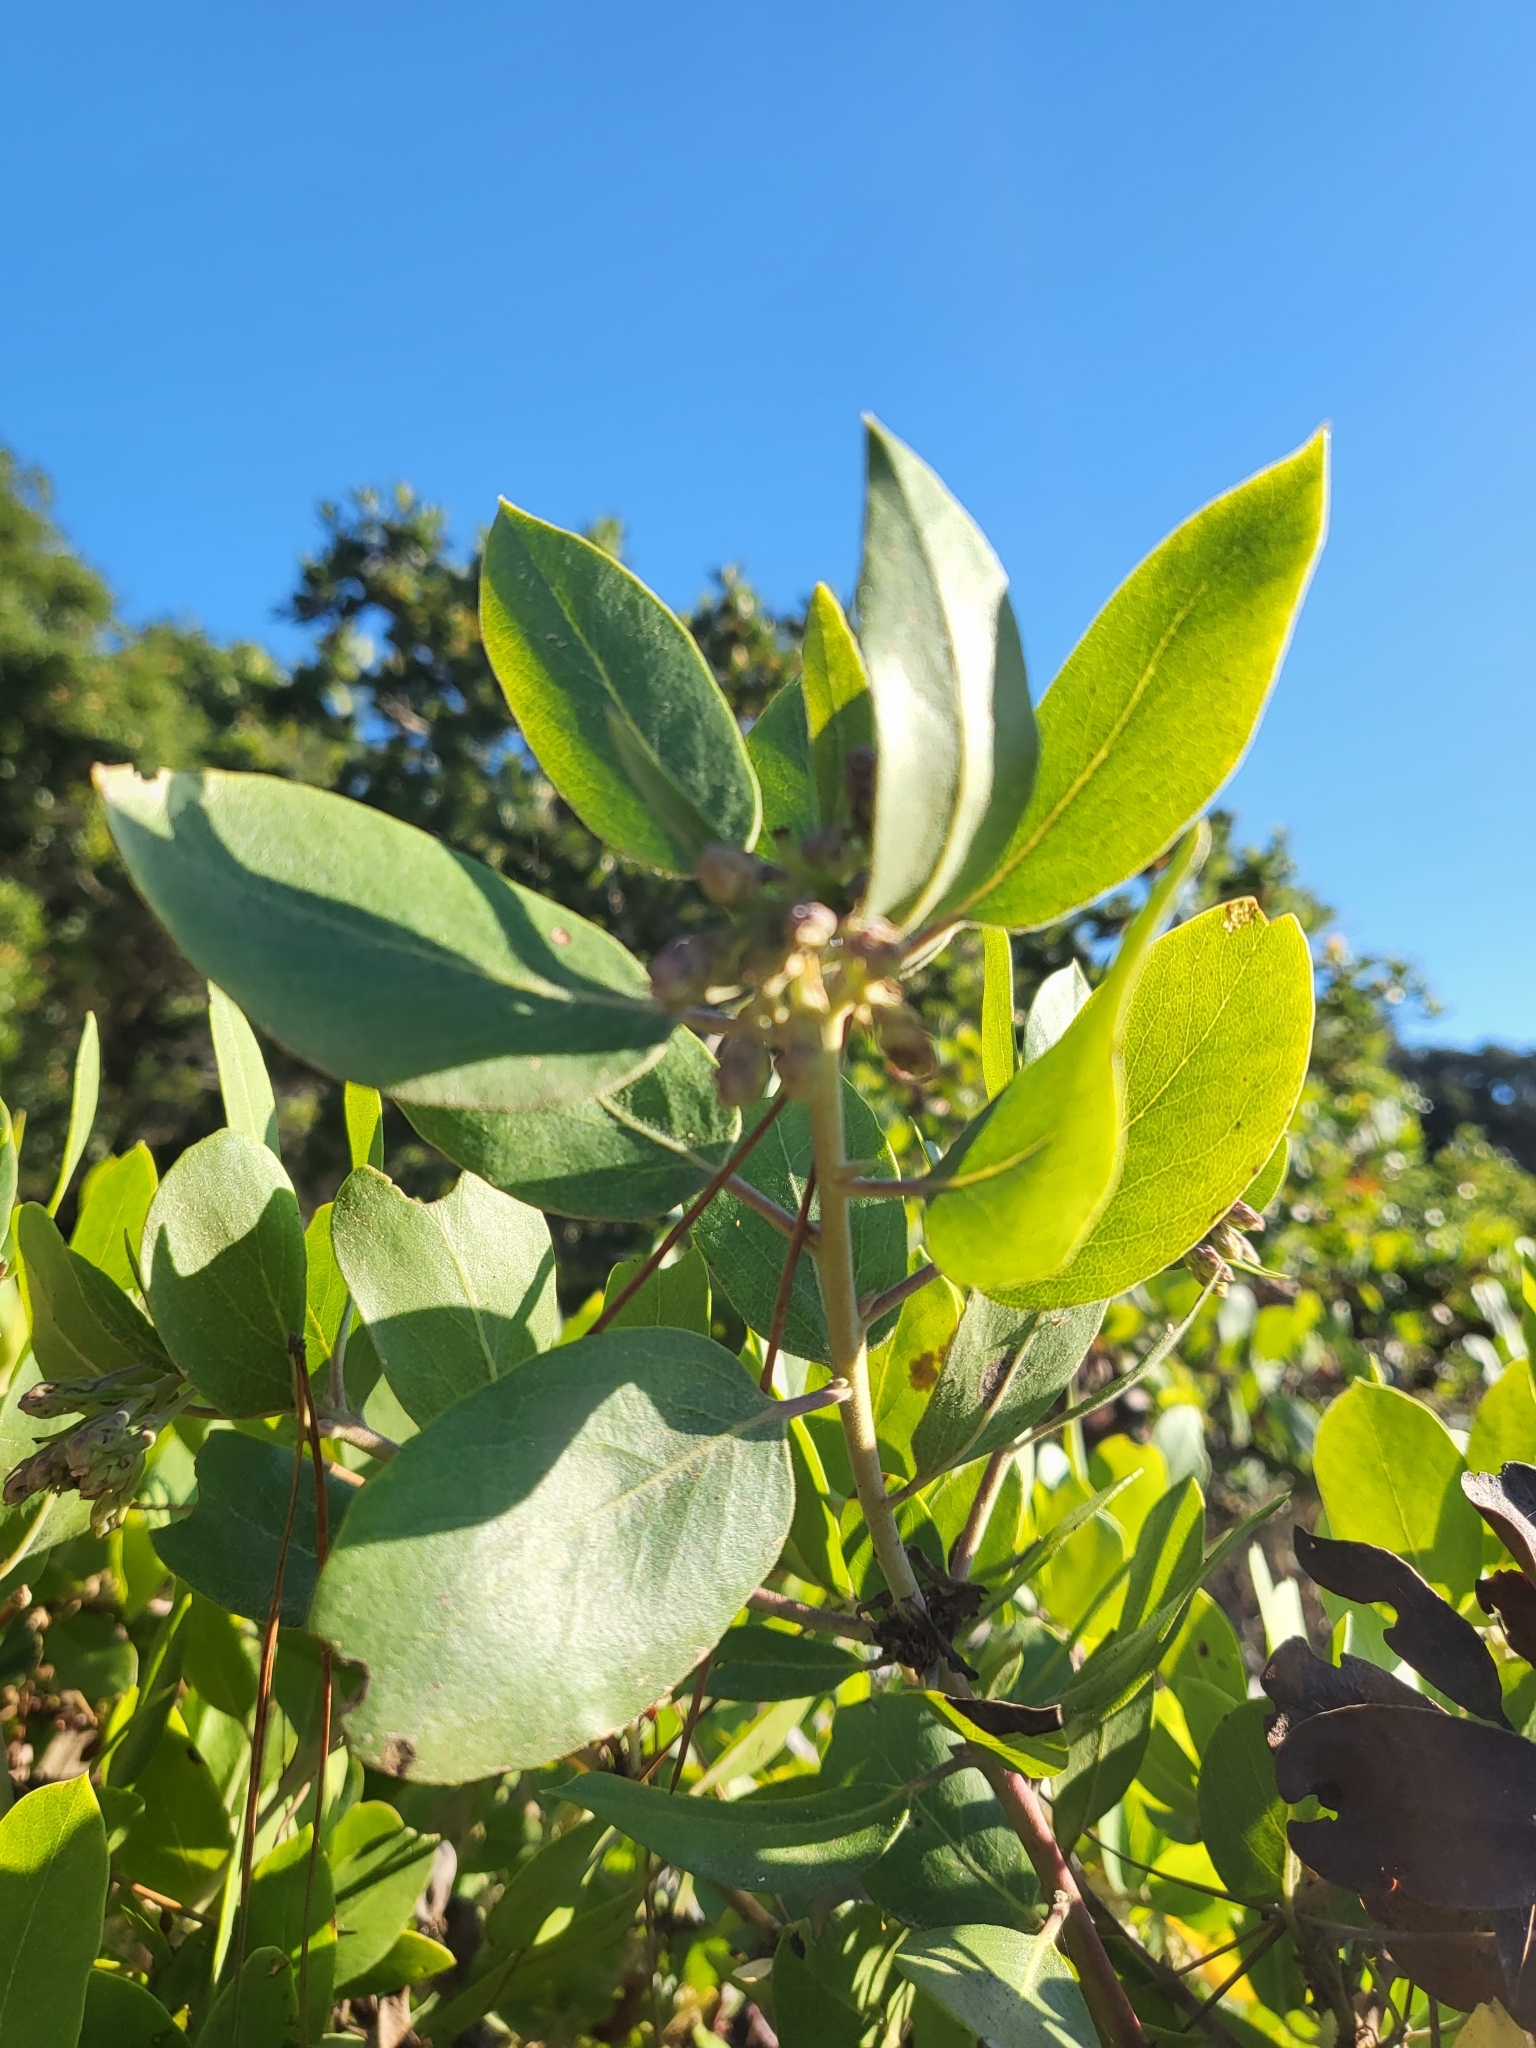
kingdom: Plantae
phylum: Tracheophyta
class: Magnoliopsida
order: Ericales
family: Ericaceae
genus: Arctostaphylos
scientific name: Arctostaphylos manzanita
